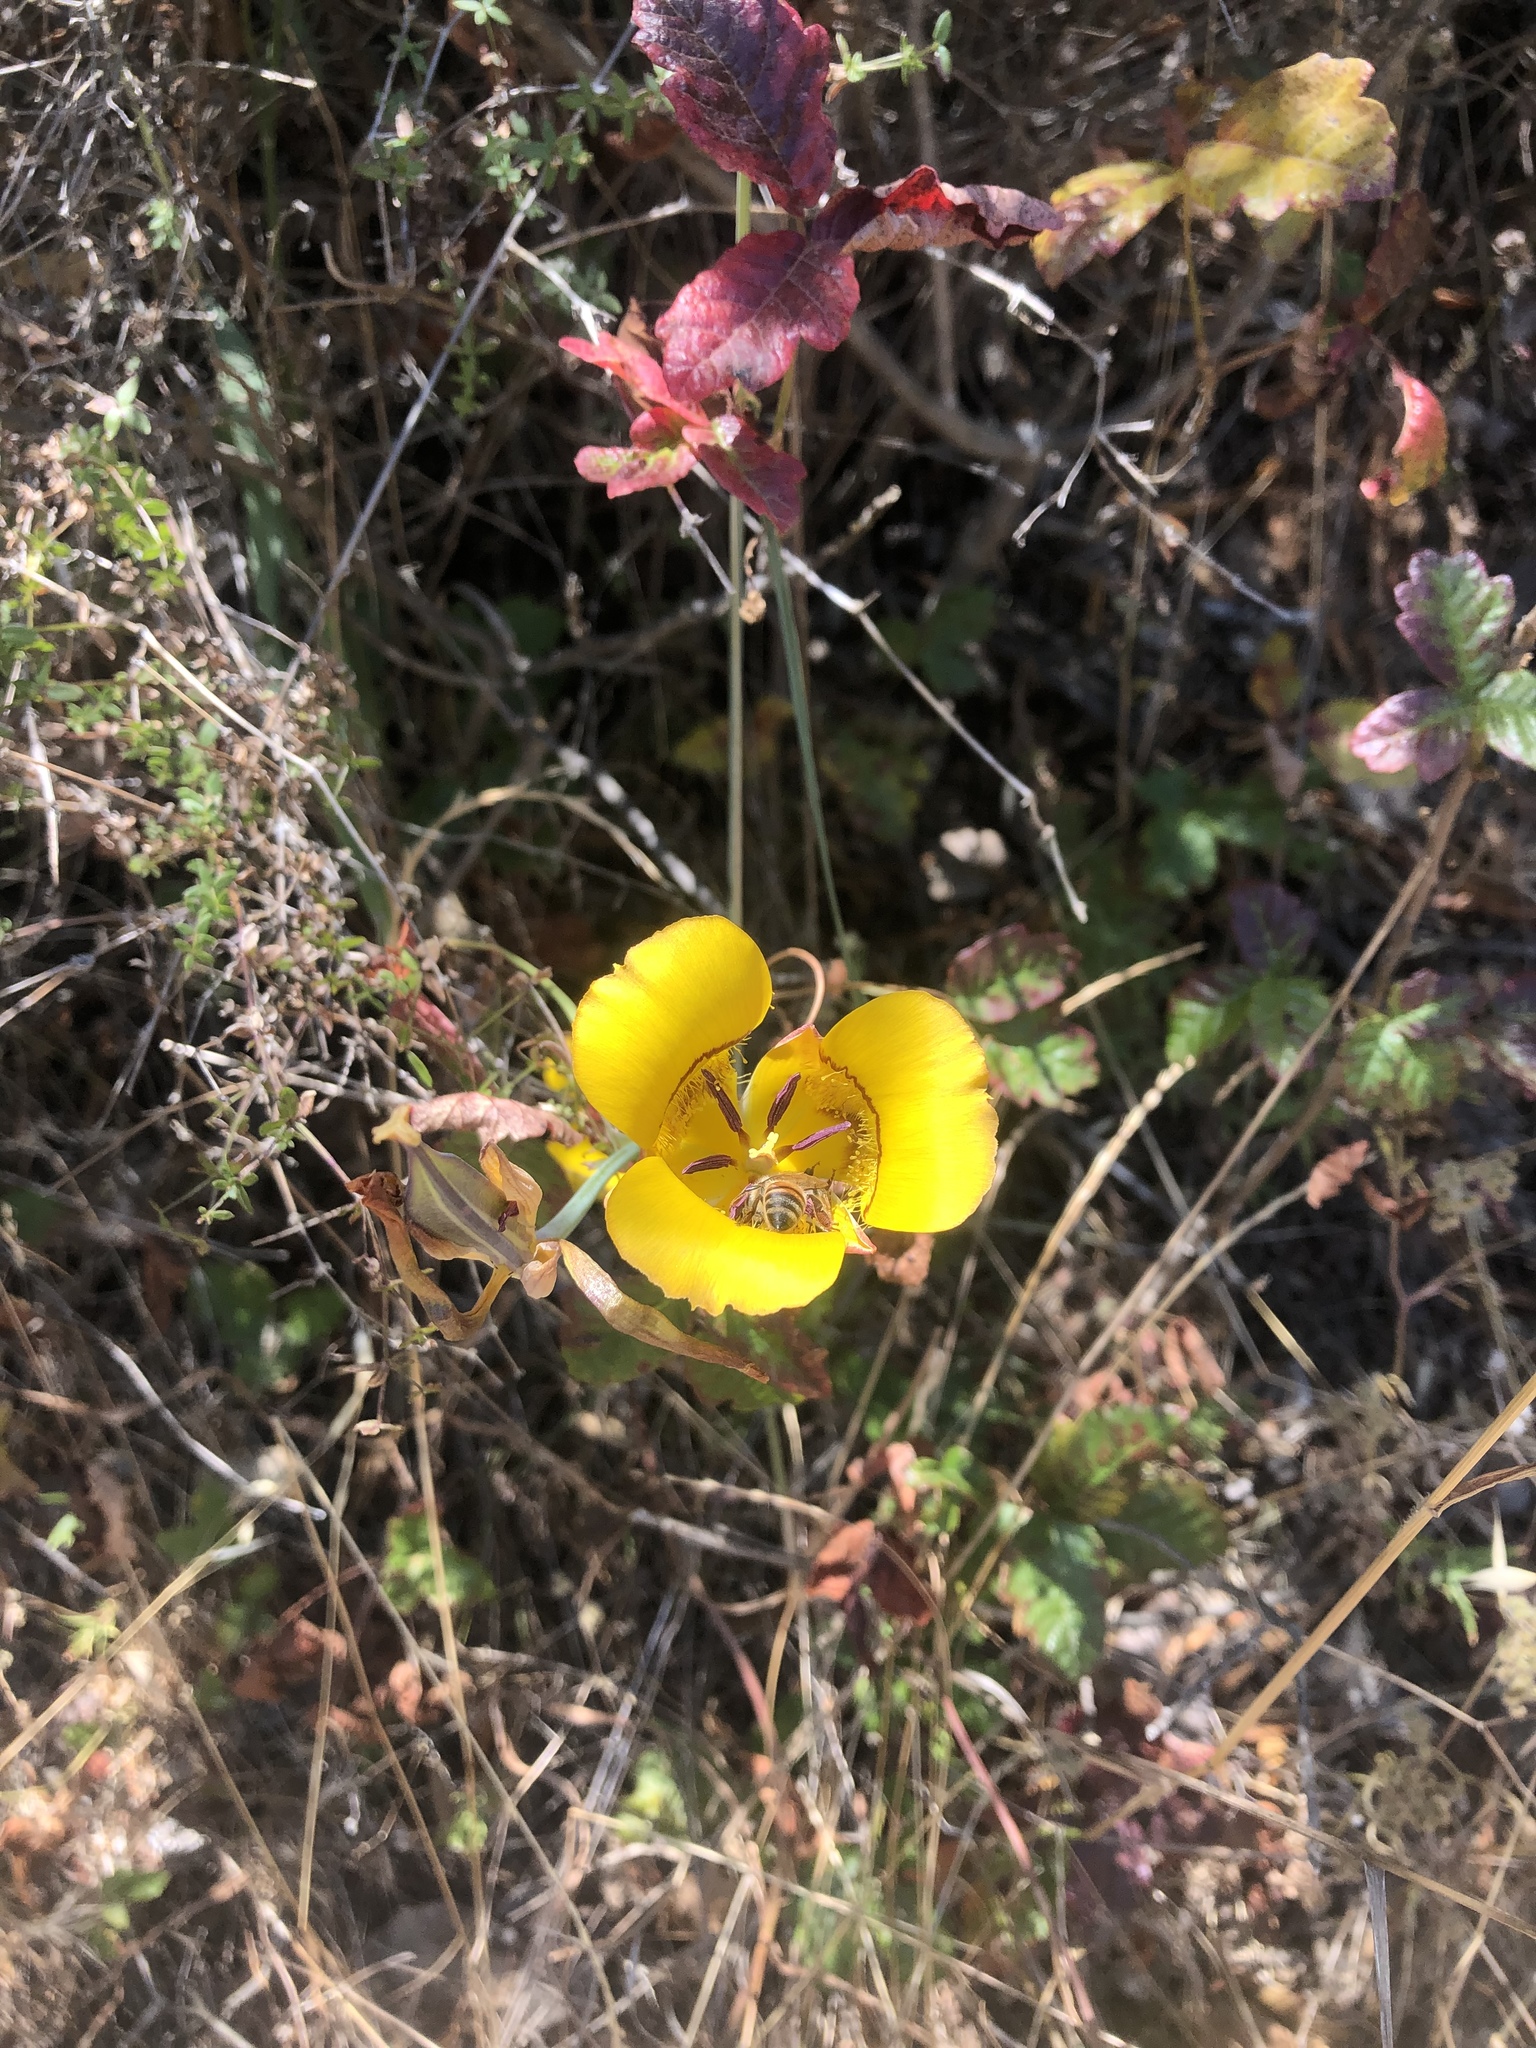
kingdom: Plantae
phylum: Tracheophyta
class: Liliopsida
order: Liliales
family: Liliaceae
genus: Calochortus
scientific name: Calochortus clavatus
